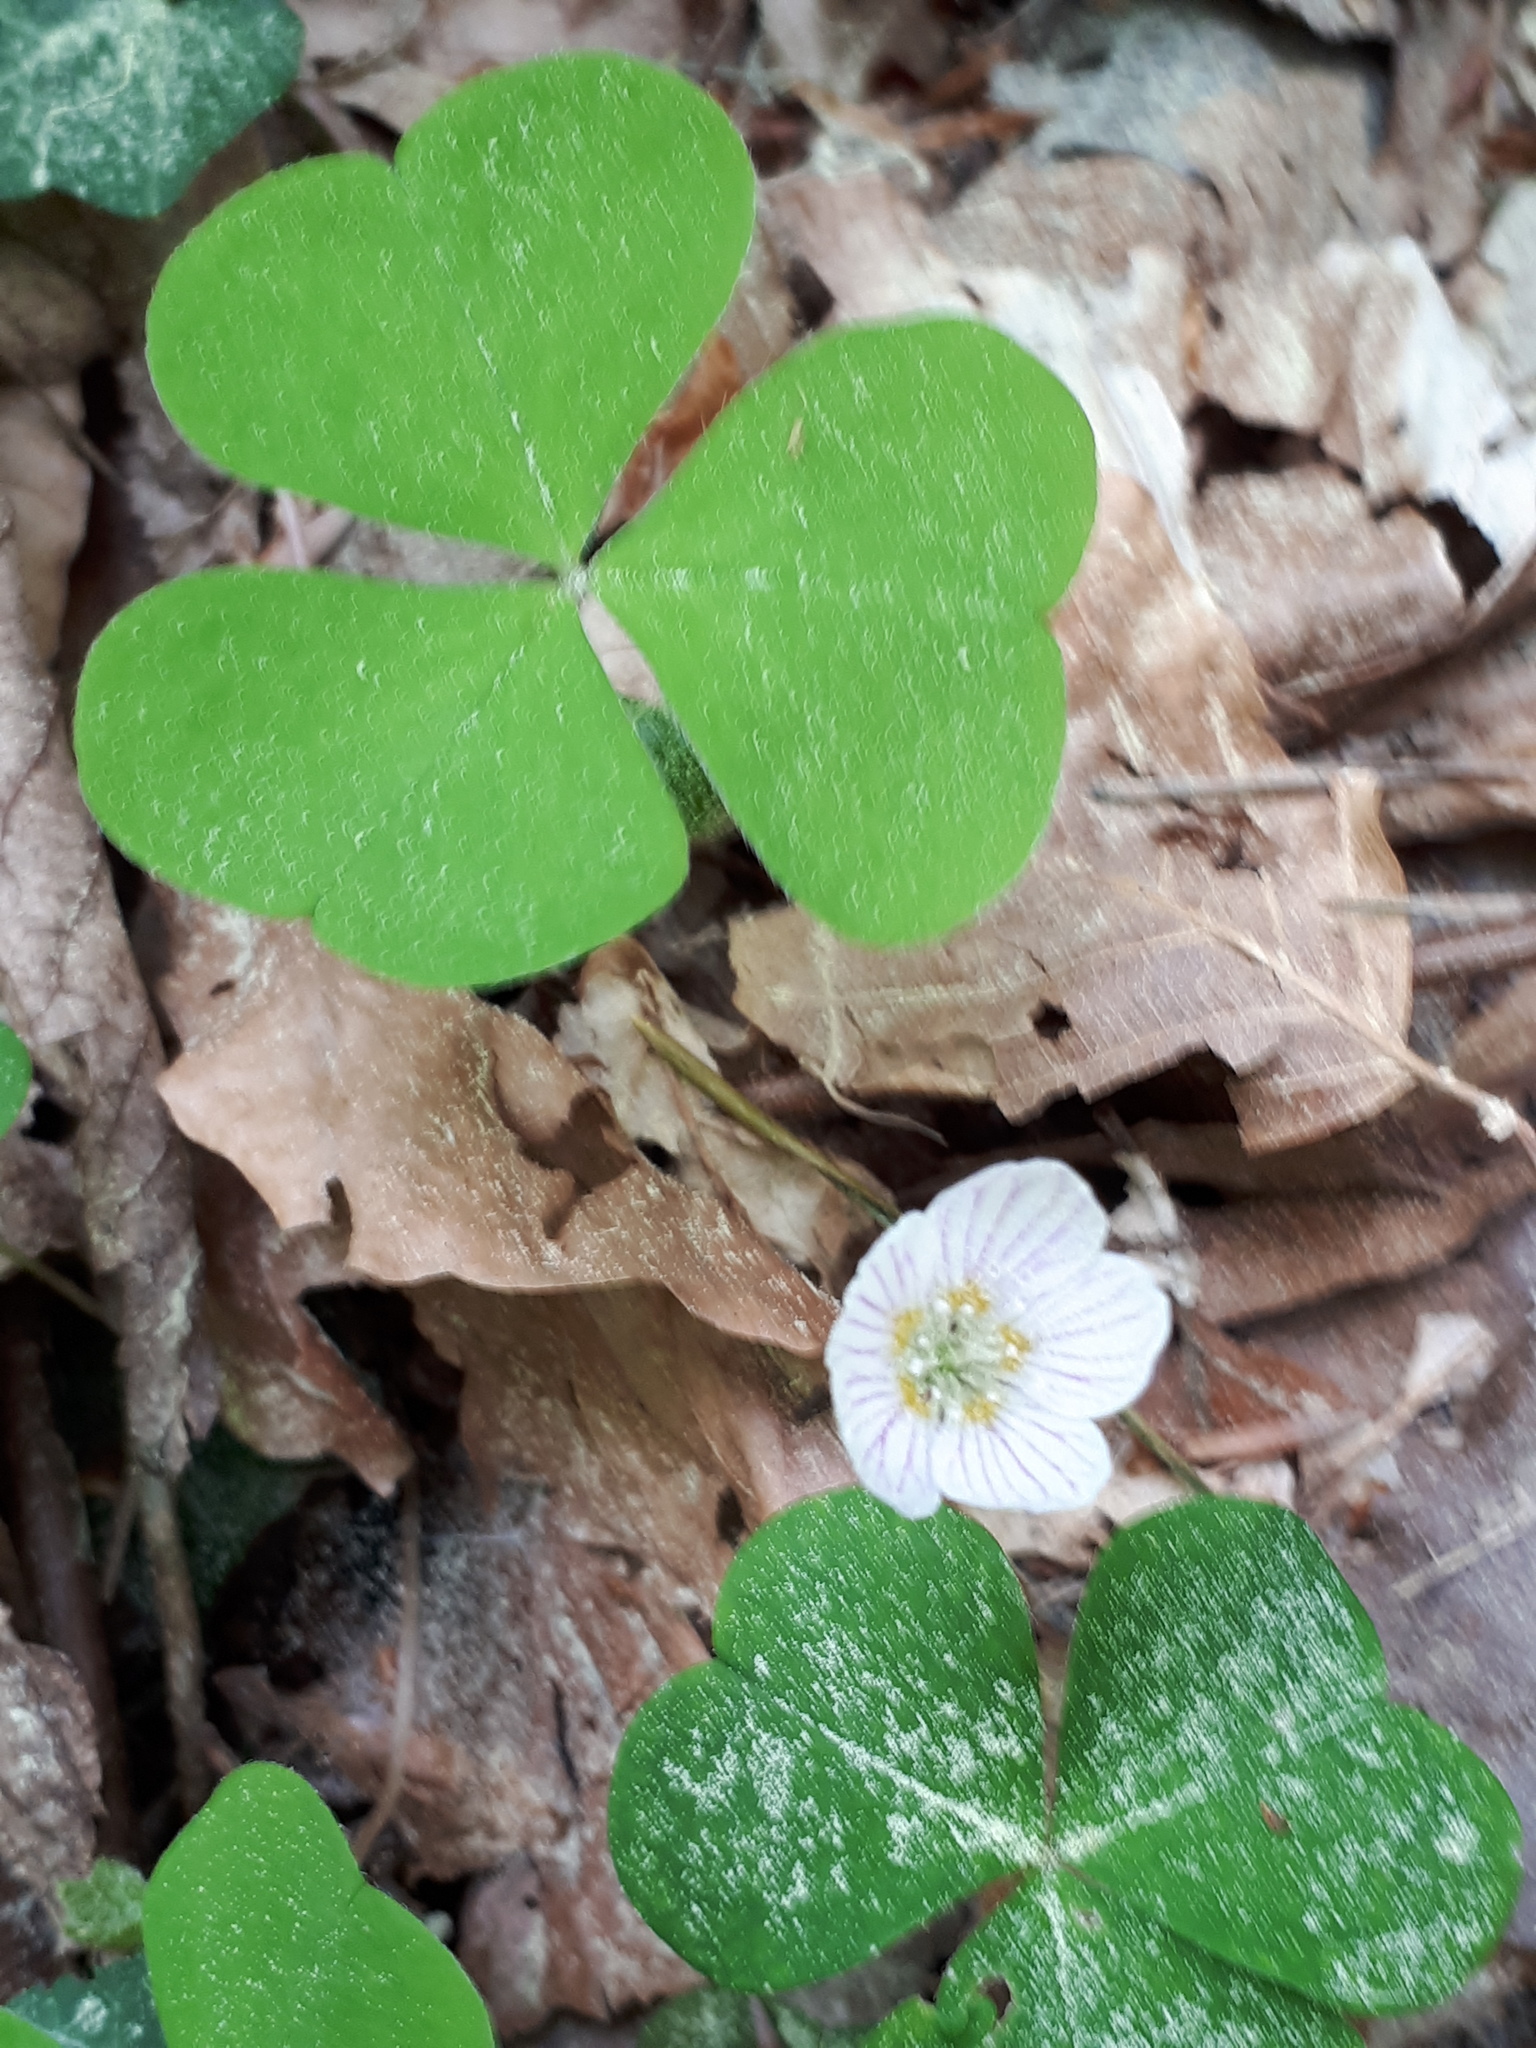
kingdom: Plantae
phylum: Tracheophyta
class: Magnoliopsida
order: Oxalidales
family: Oxalidaceae
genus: Oxalis
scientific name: Oxalis acetosella
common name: Wood-sorrel
